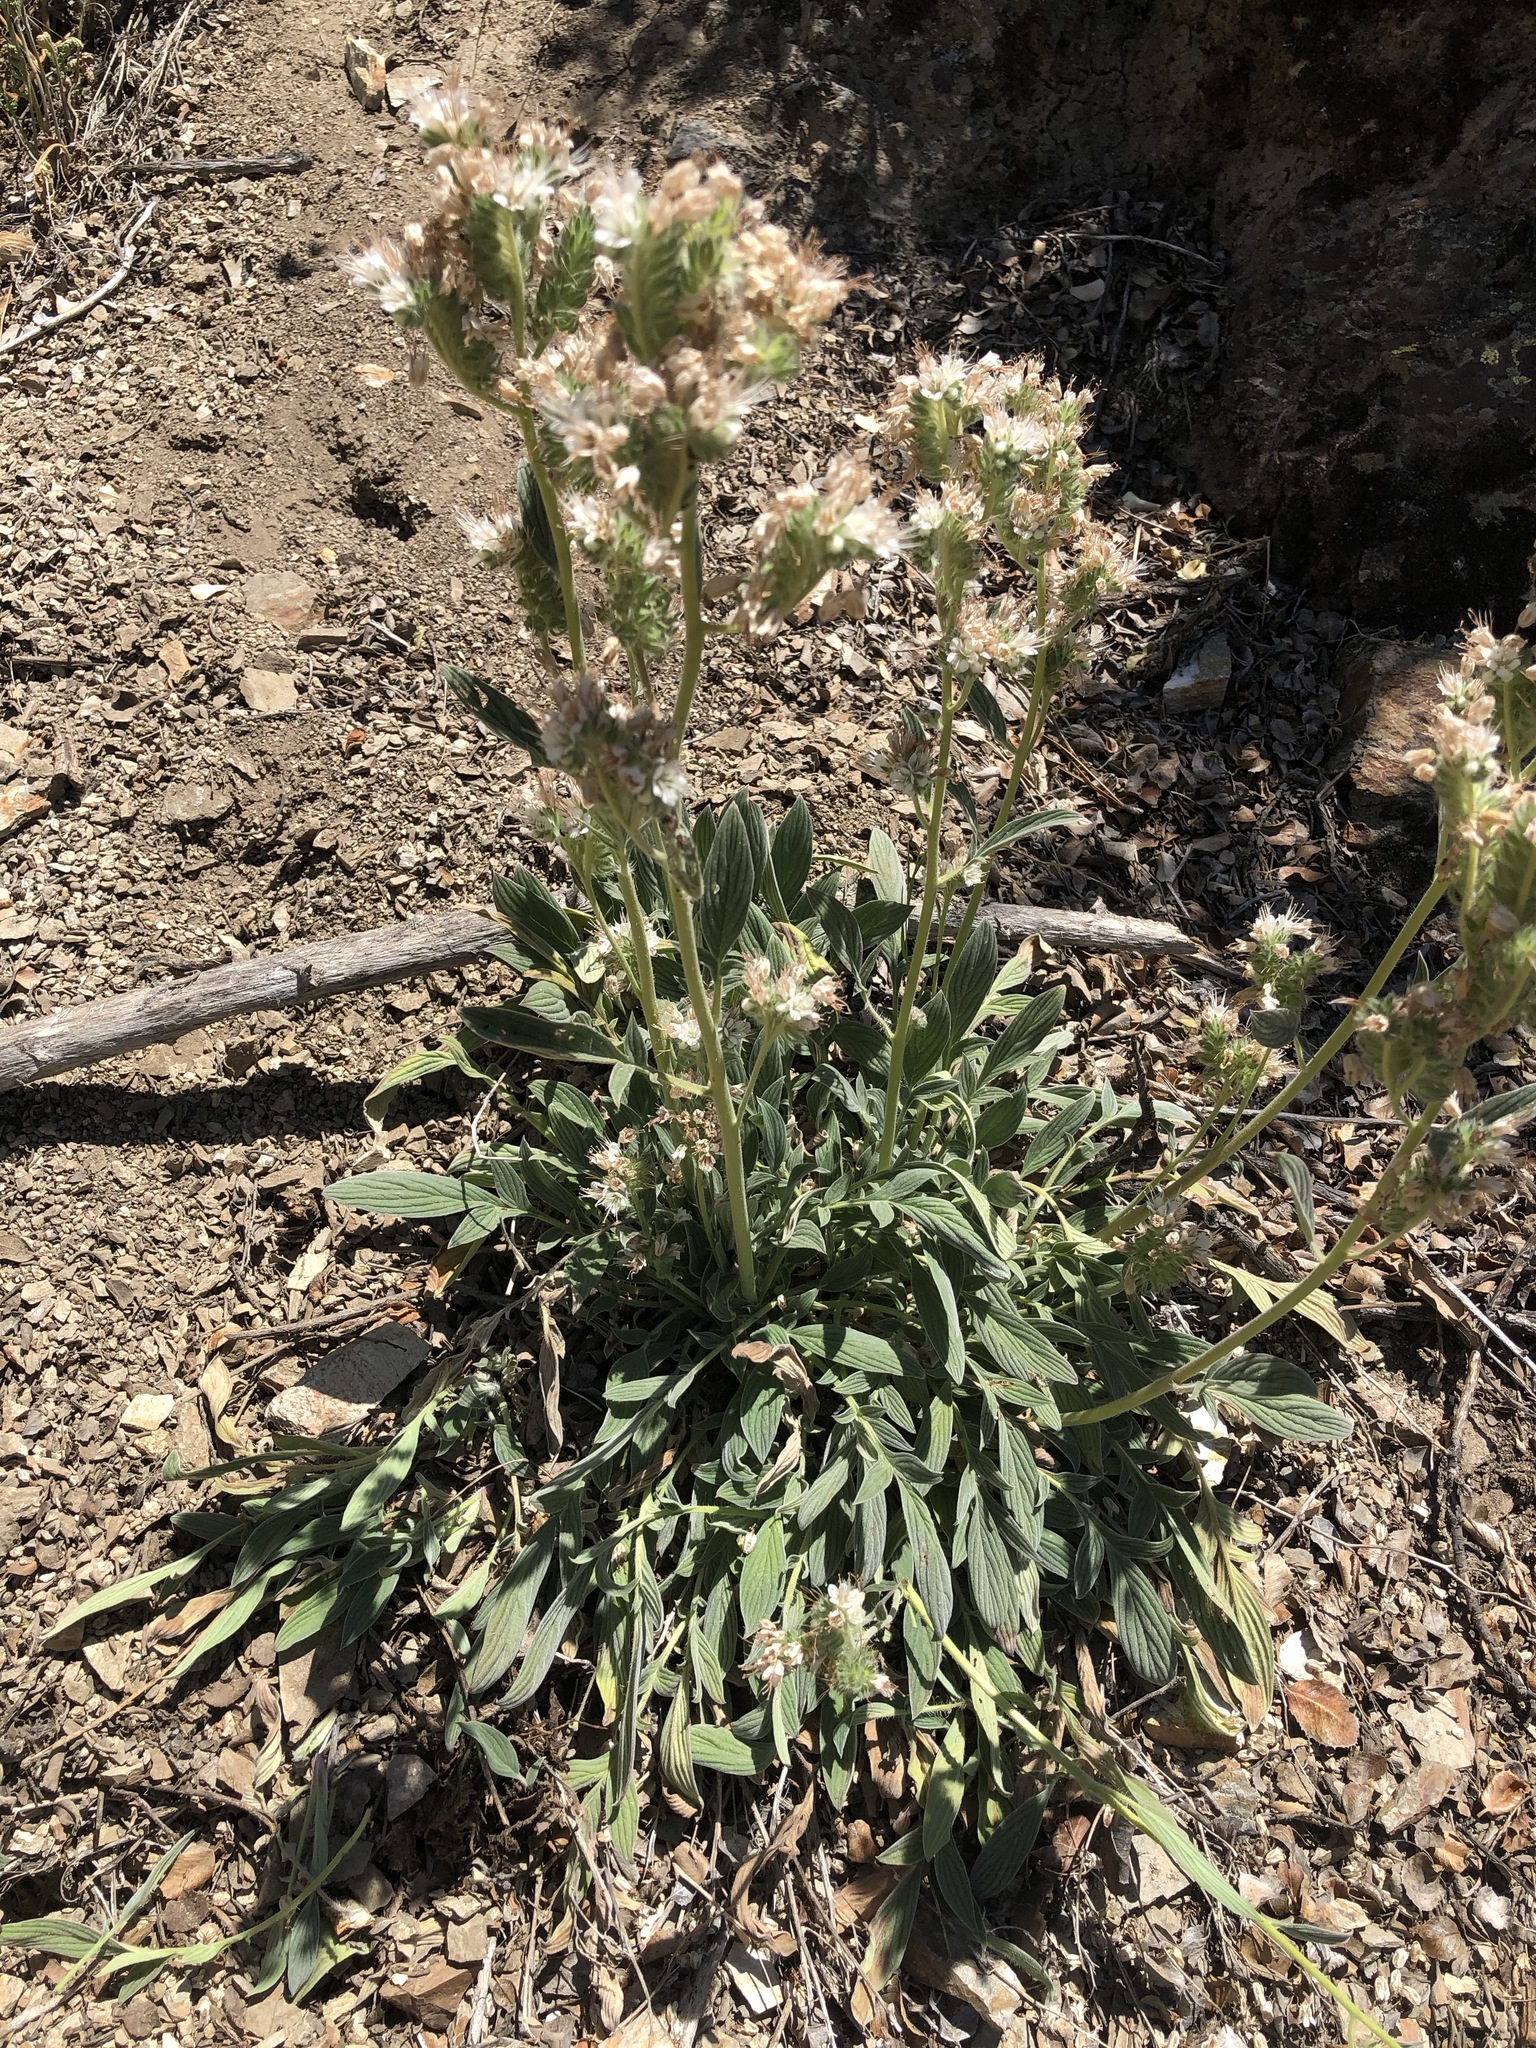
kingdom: Plantae
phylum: Tracheophyta
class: Magnoliopsida
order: Boraginales
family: Hydrophyllaceae
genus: Phacelia
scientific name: Phacelia hastata
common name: Silver-leaved phacelia
